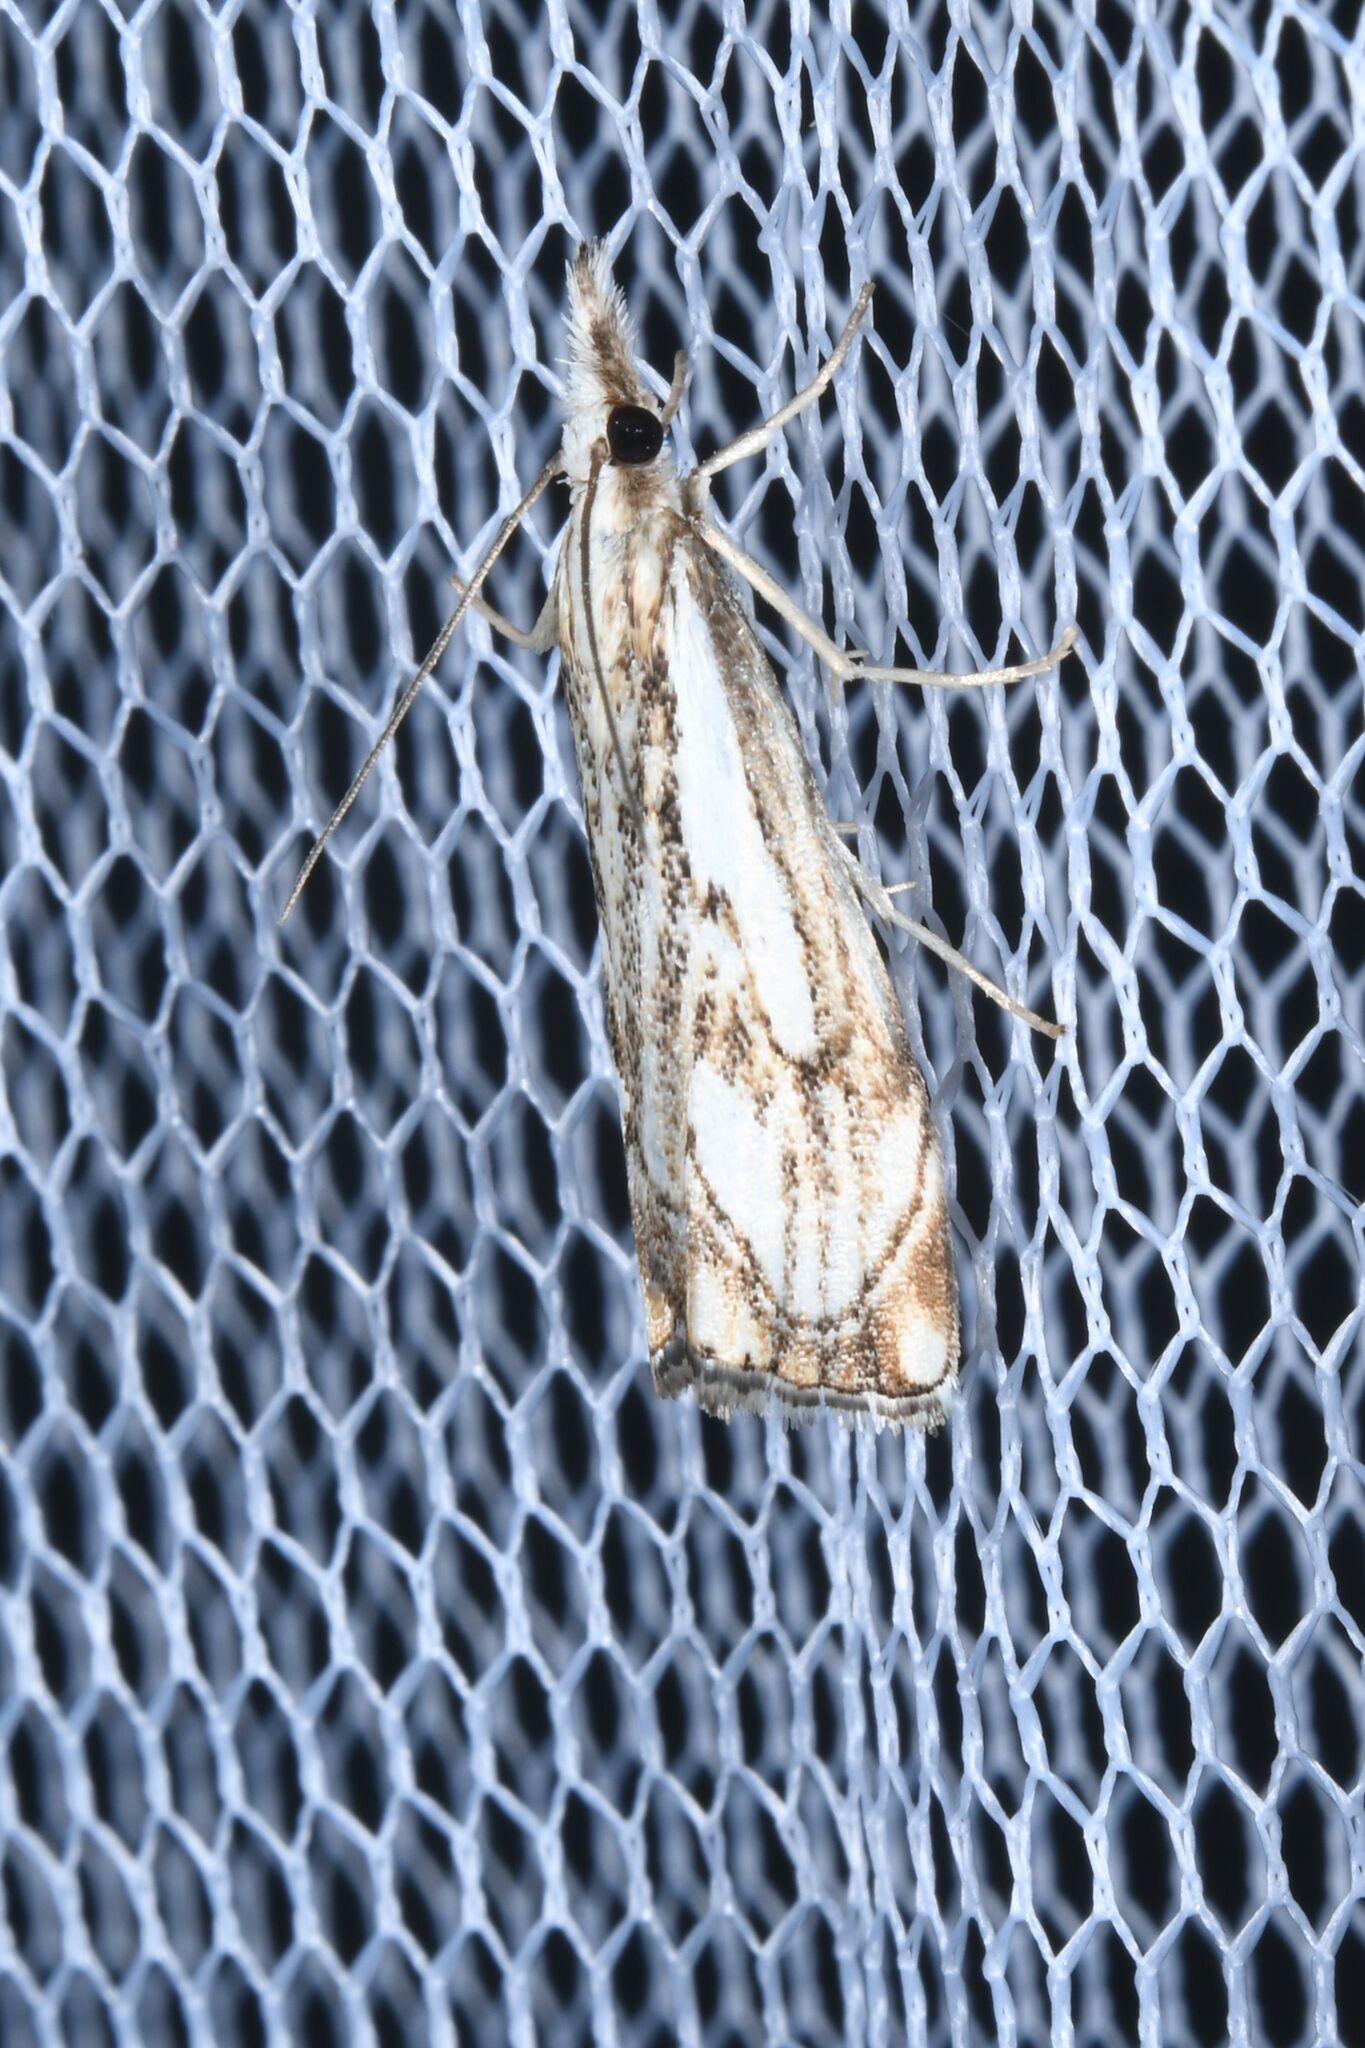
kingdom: Animalia
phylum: Arthropoda
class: Insecta
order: Lepidoptera
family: Crambidae
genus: Catoptria
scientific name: Catoptria falsella
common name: Chequered grass-veneer
